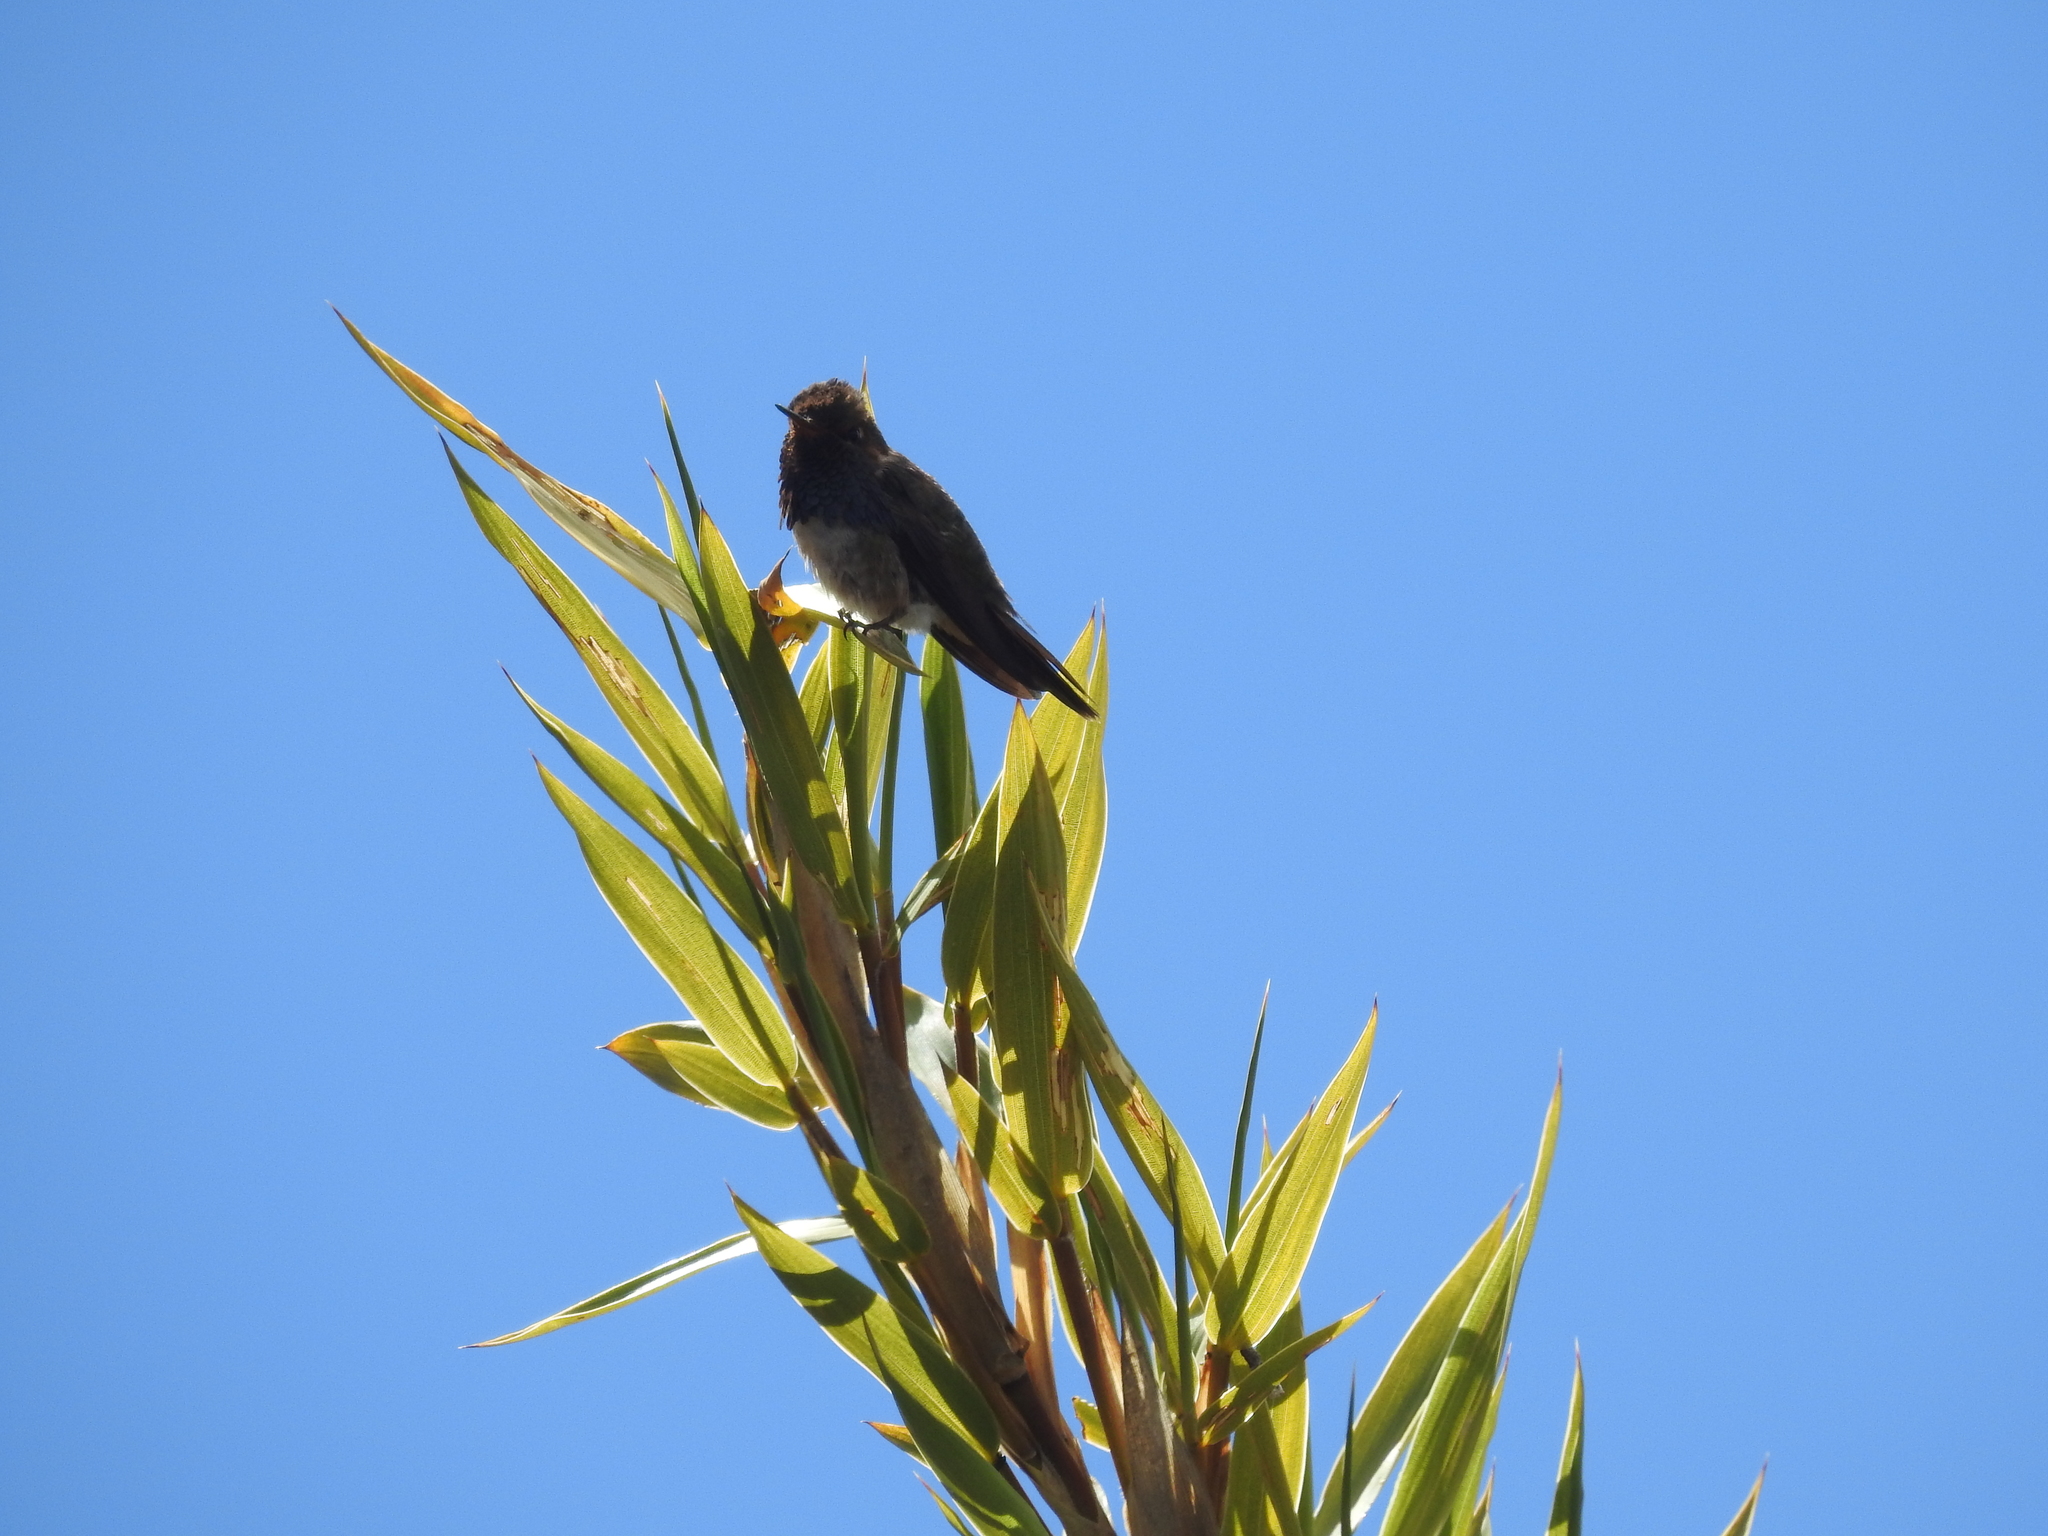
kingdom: Animalia
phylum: Chordata
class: Aves
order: Apodiformes
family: Trochilidae
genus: Selasphorus
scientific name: Selasphorus flammula
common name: Volcano hummingbird
